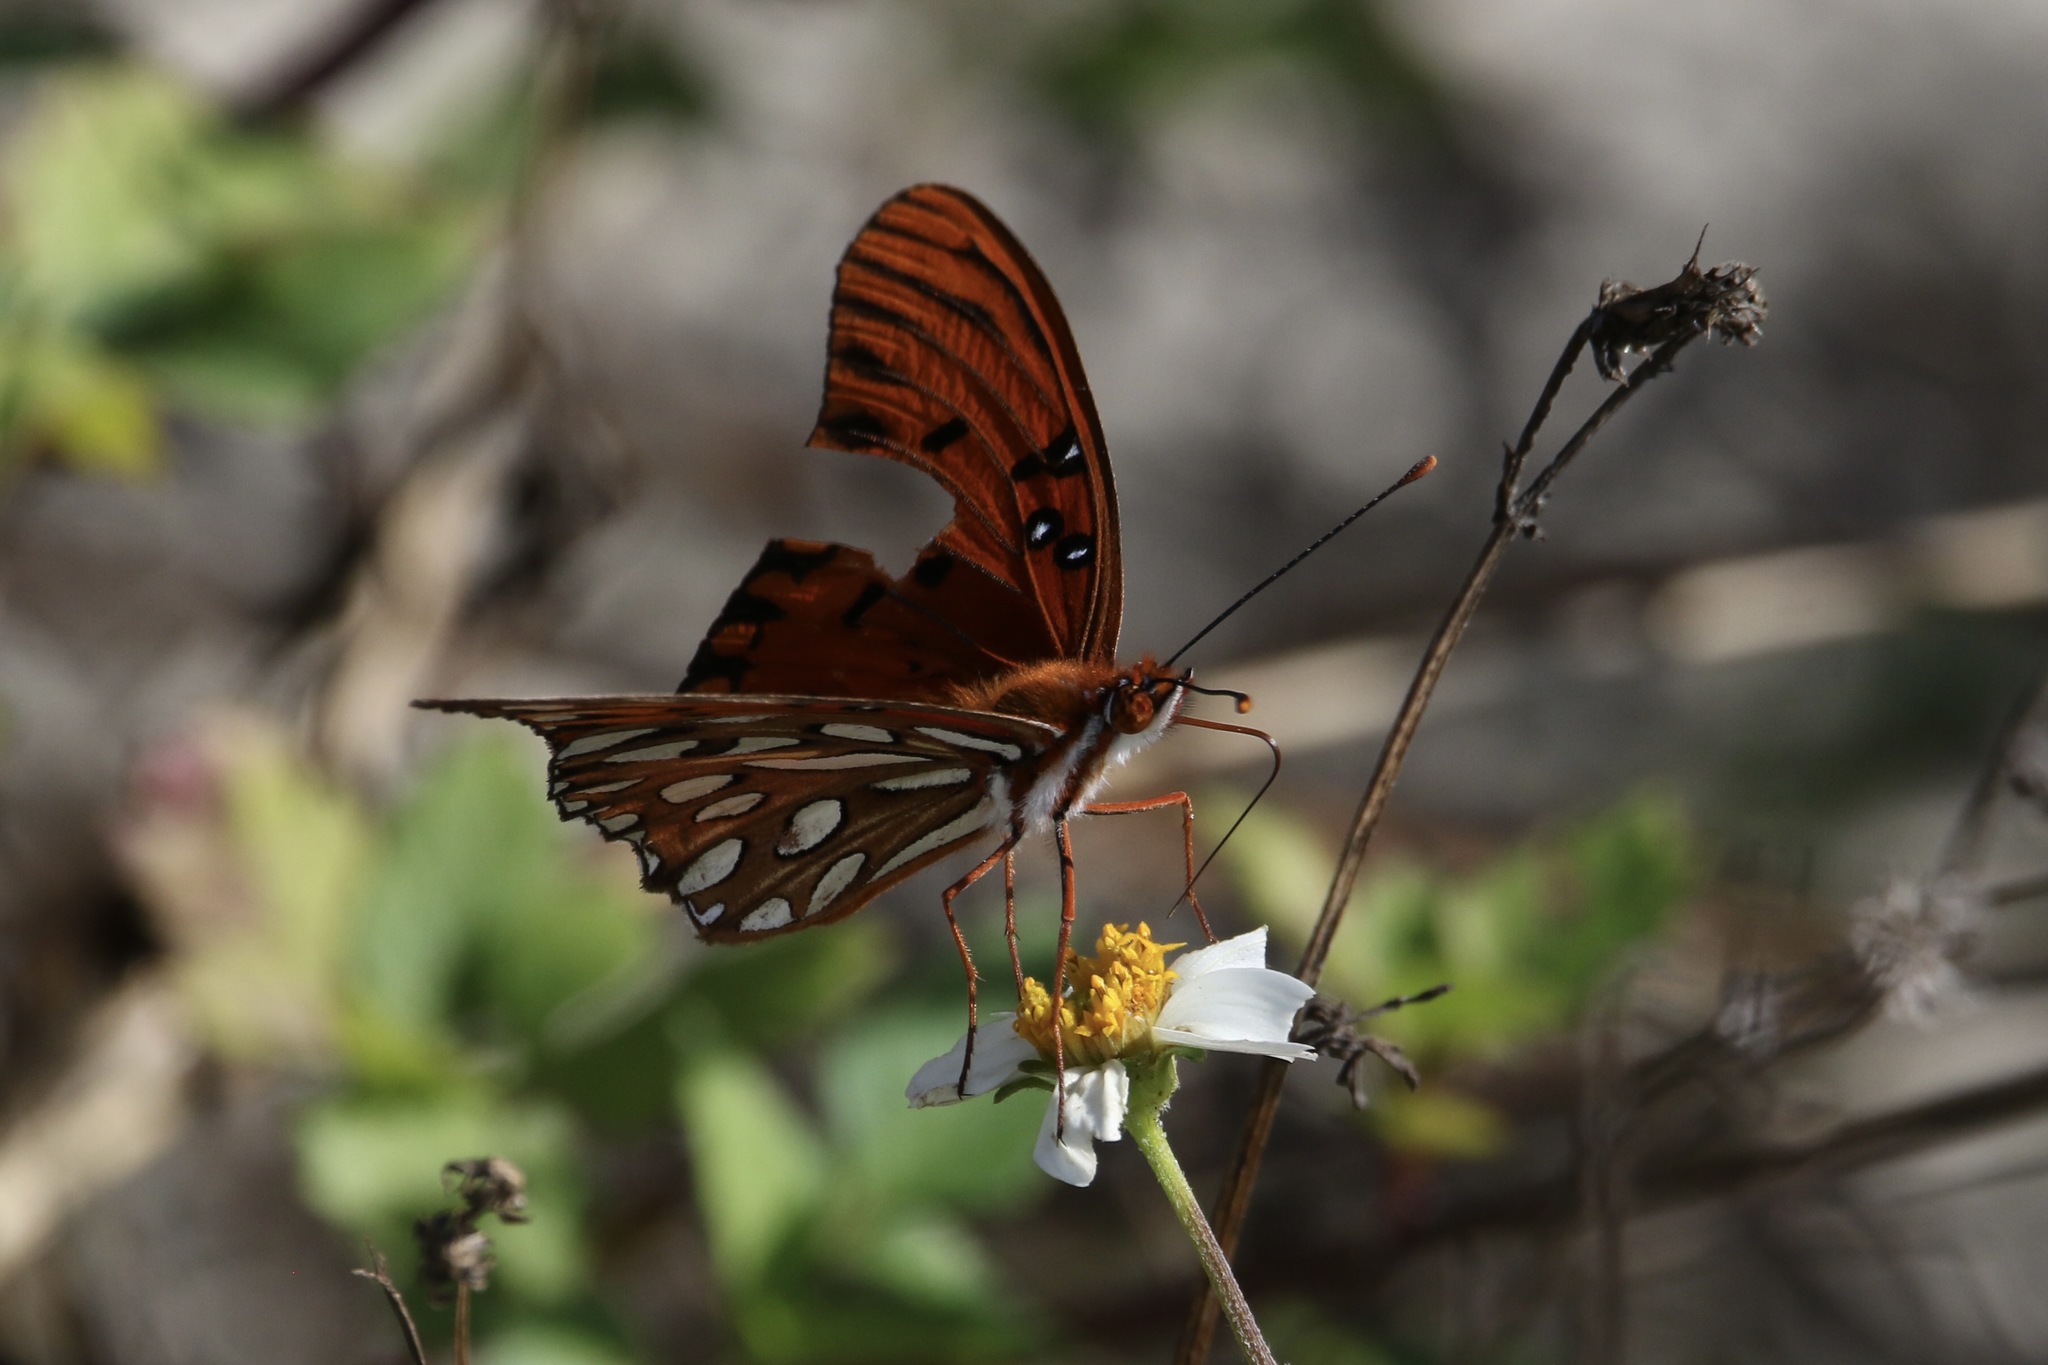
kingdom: Animalia
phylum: Arthropoda
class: Insecta
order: Lepidoptera
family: Nymphalidae
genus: Dione
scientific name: Dione vanillae
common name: Gulf fritillary
